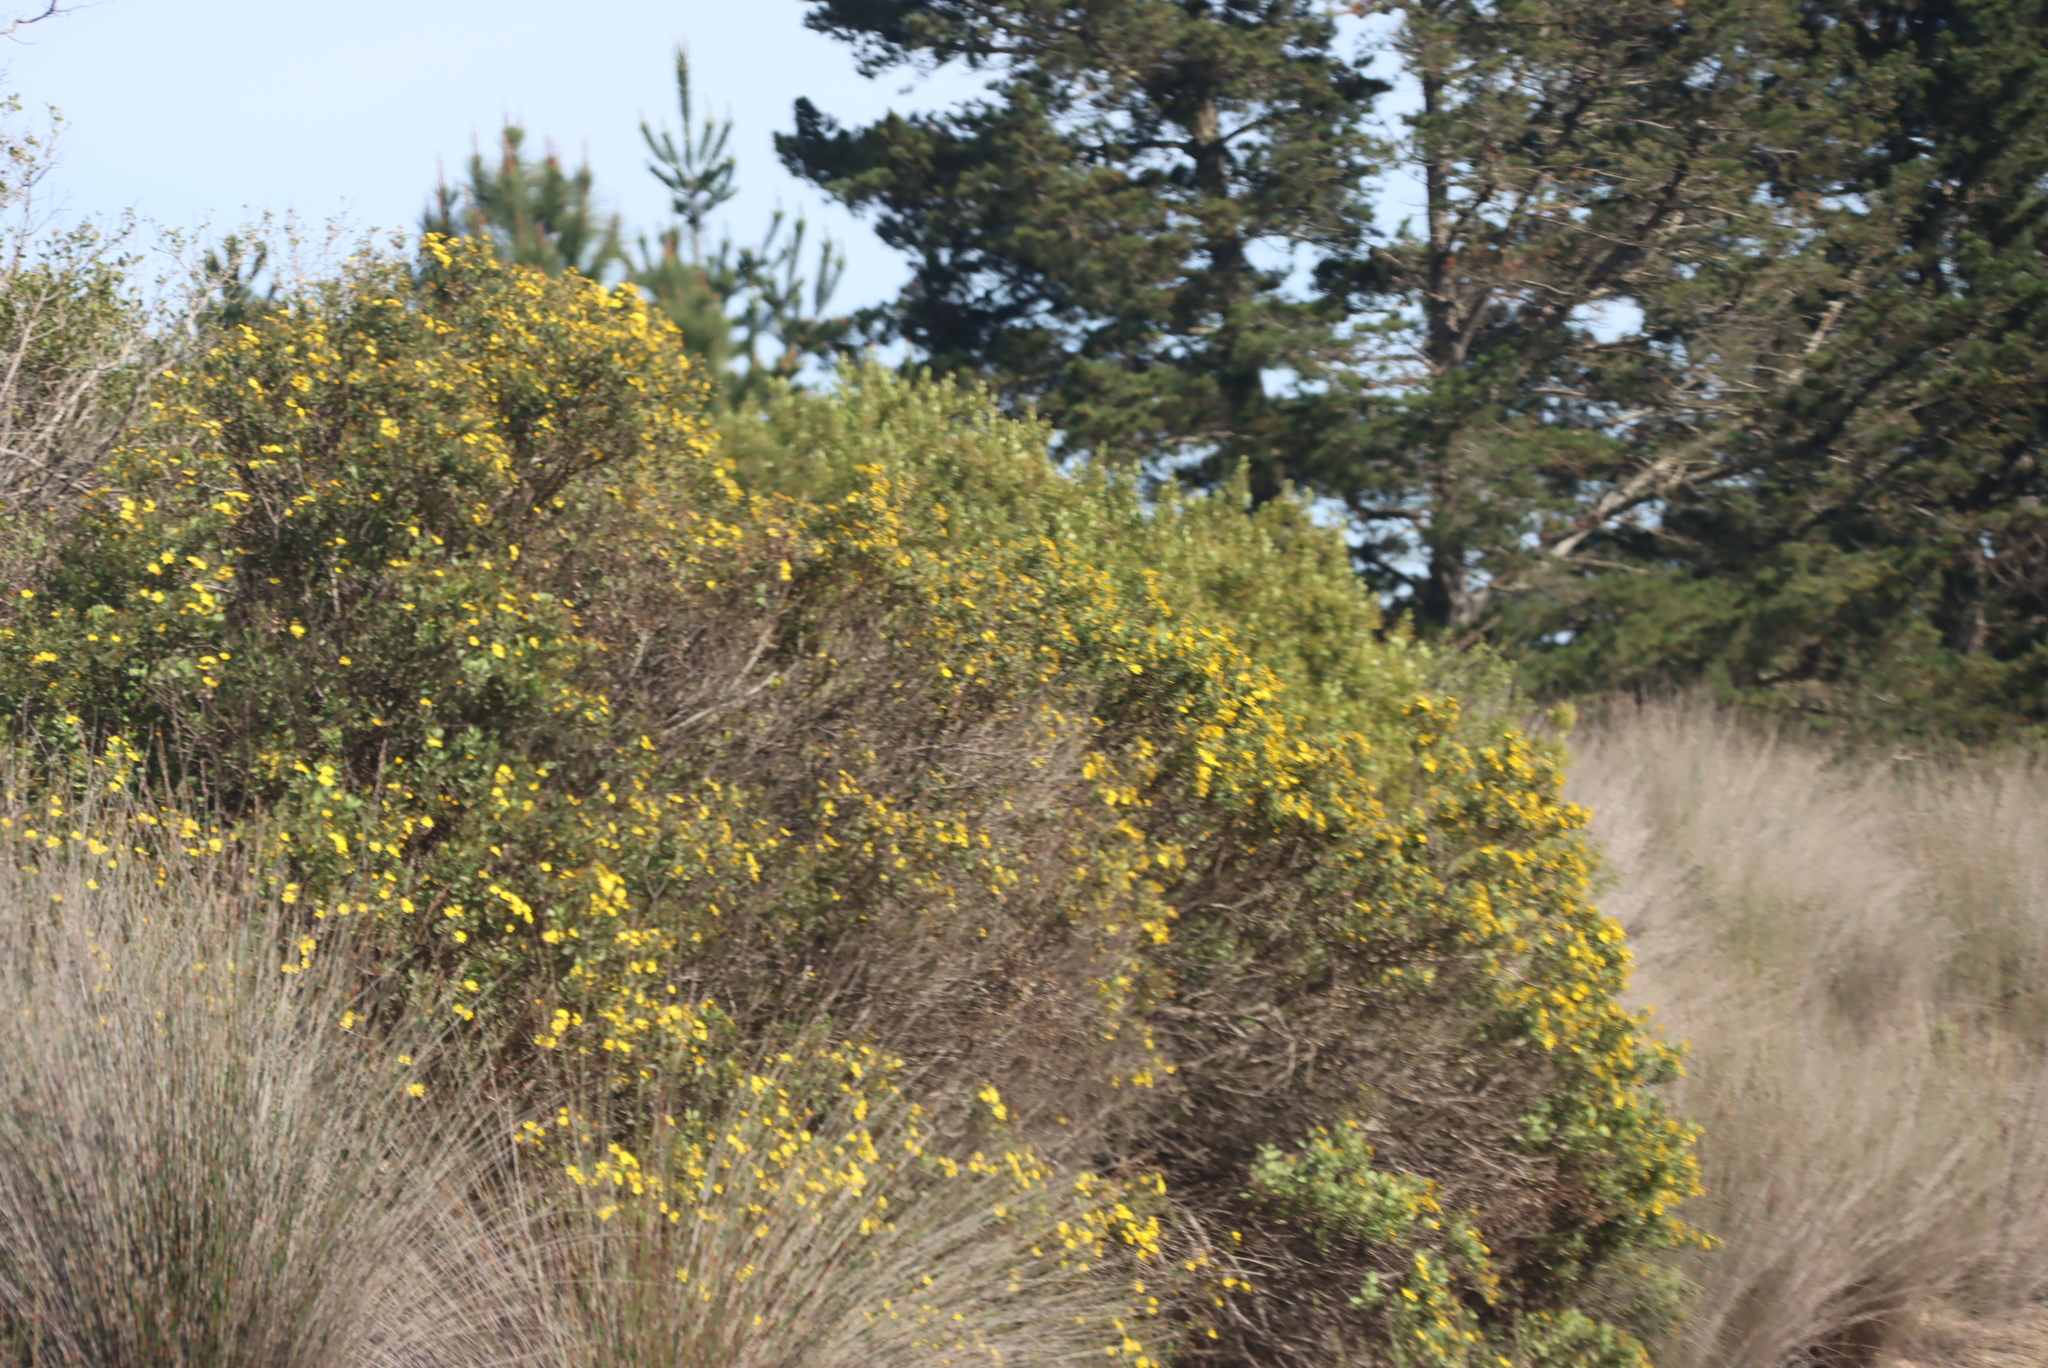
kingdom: Plantae
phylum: Tracheophyta
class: Magnoliopsida
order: Asterales
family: Asteraceae
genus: Osteospermum
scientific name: Osteospermum moniliferum
